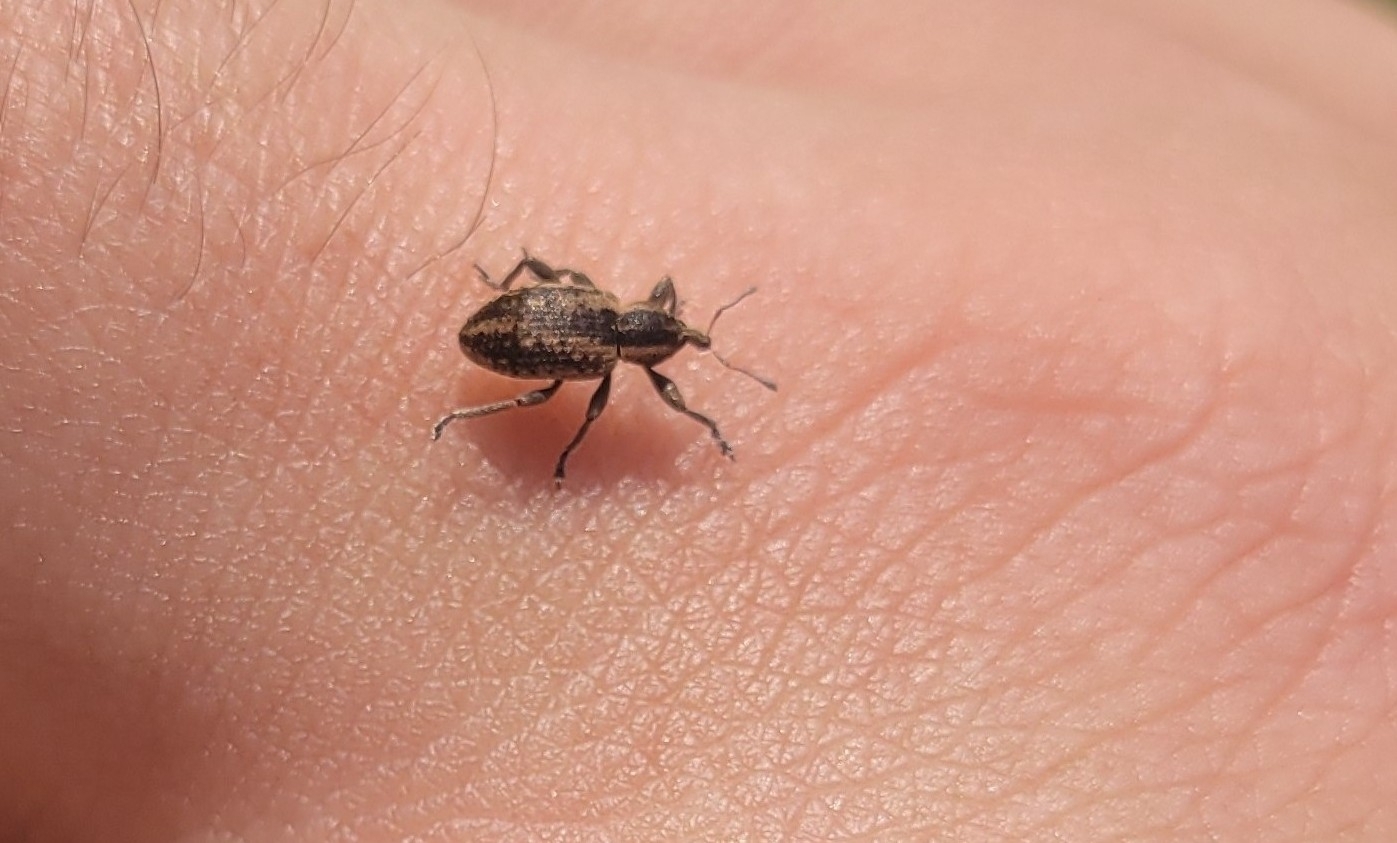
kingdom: Animalia
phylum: Arthropoda
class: Insecta
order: Coleoptera
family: Curculionidae
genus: Hypera
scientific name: Hypera miles
